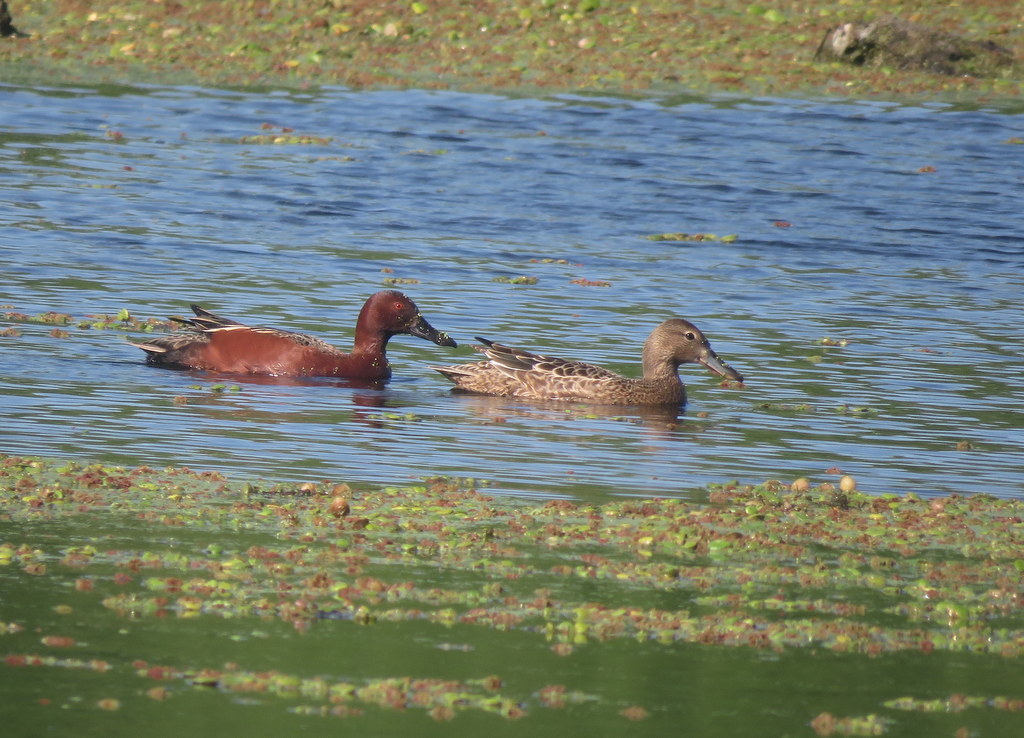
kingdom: Animalia
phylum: Chordata
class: Aves
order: Anseriformes
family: Anatidae
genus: Spatula
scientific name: Spatula cyanoptera
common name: Cinnamon teal
